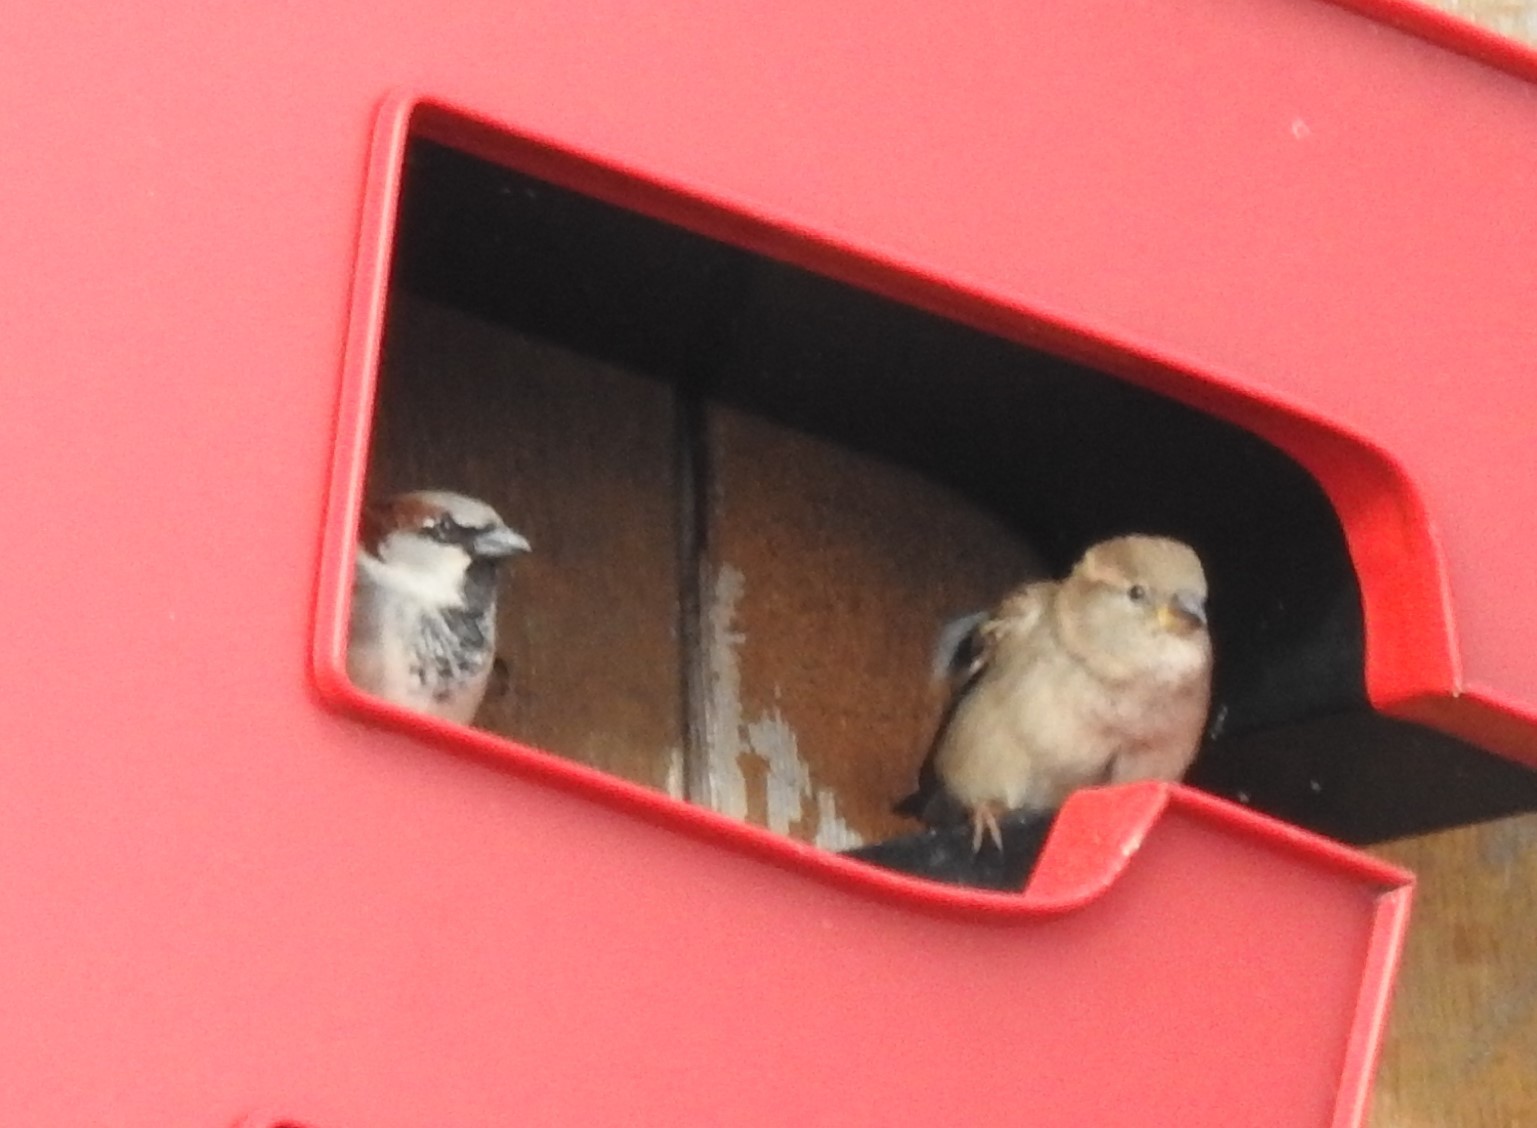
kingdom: Animalia
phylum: Chordata
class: Aves
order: Passeriformes
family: Passeridae
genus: Passer
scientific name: Passer domesticus
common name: House sparrow
